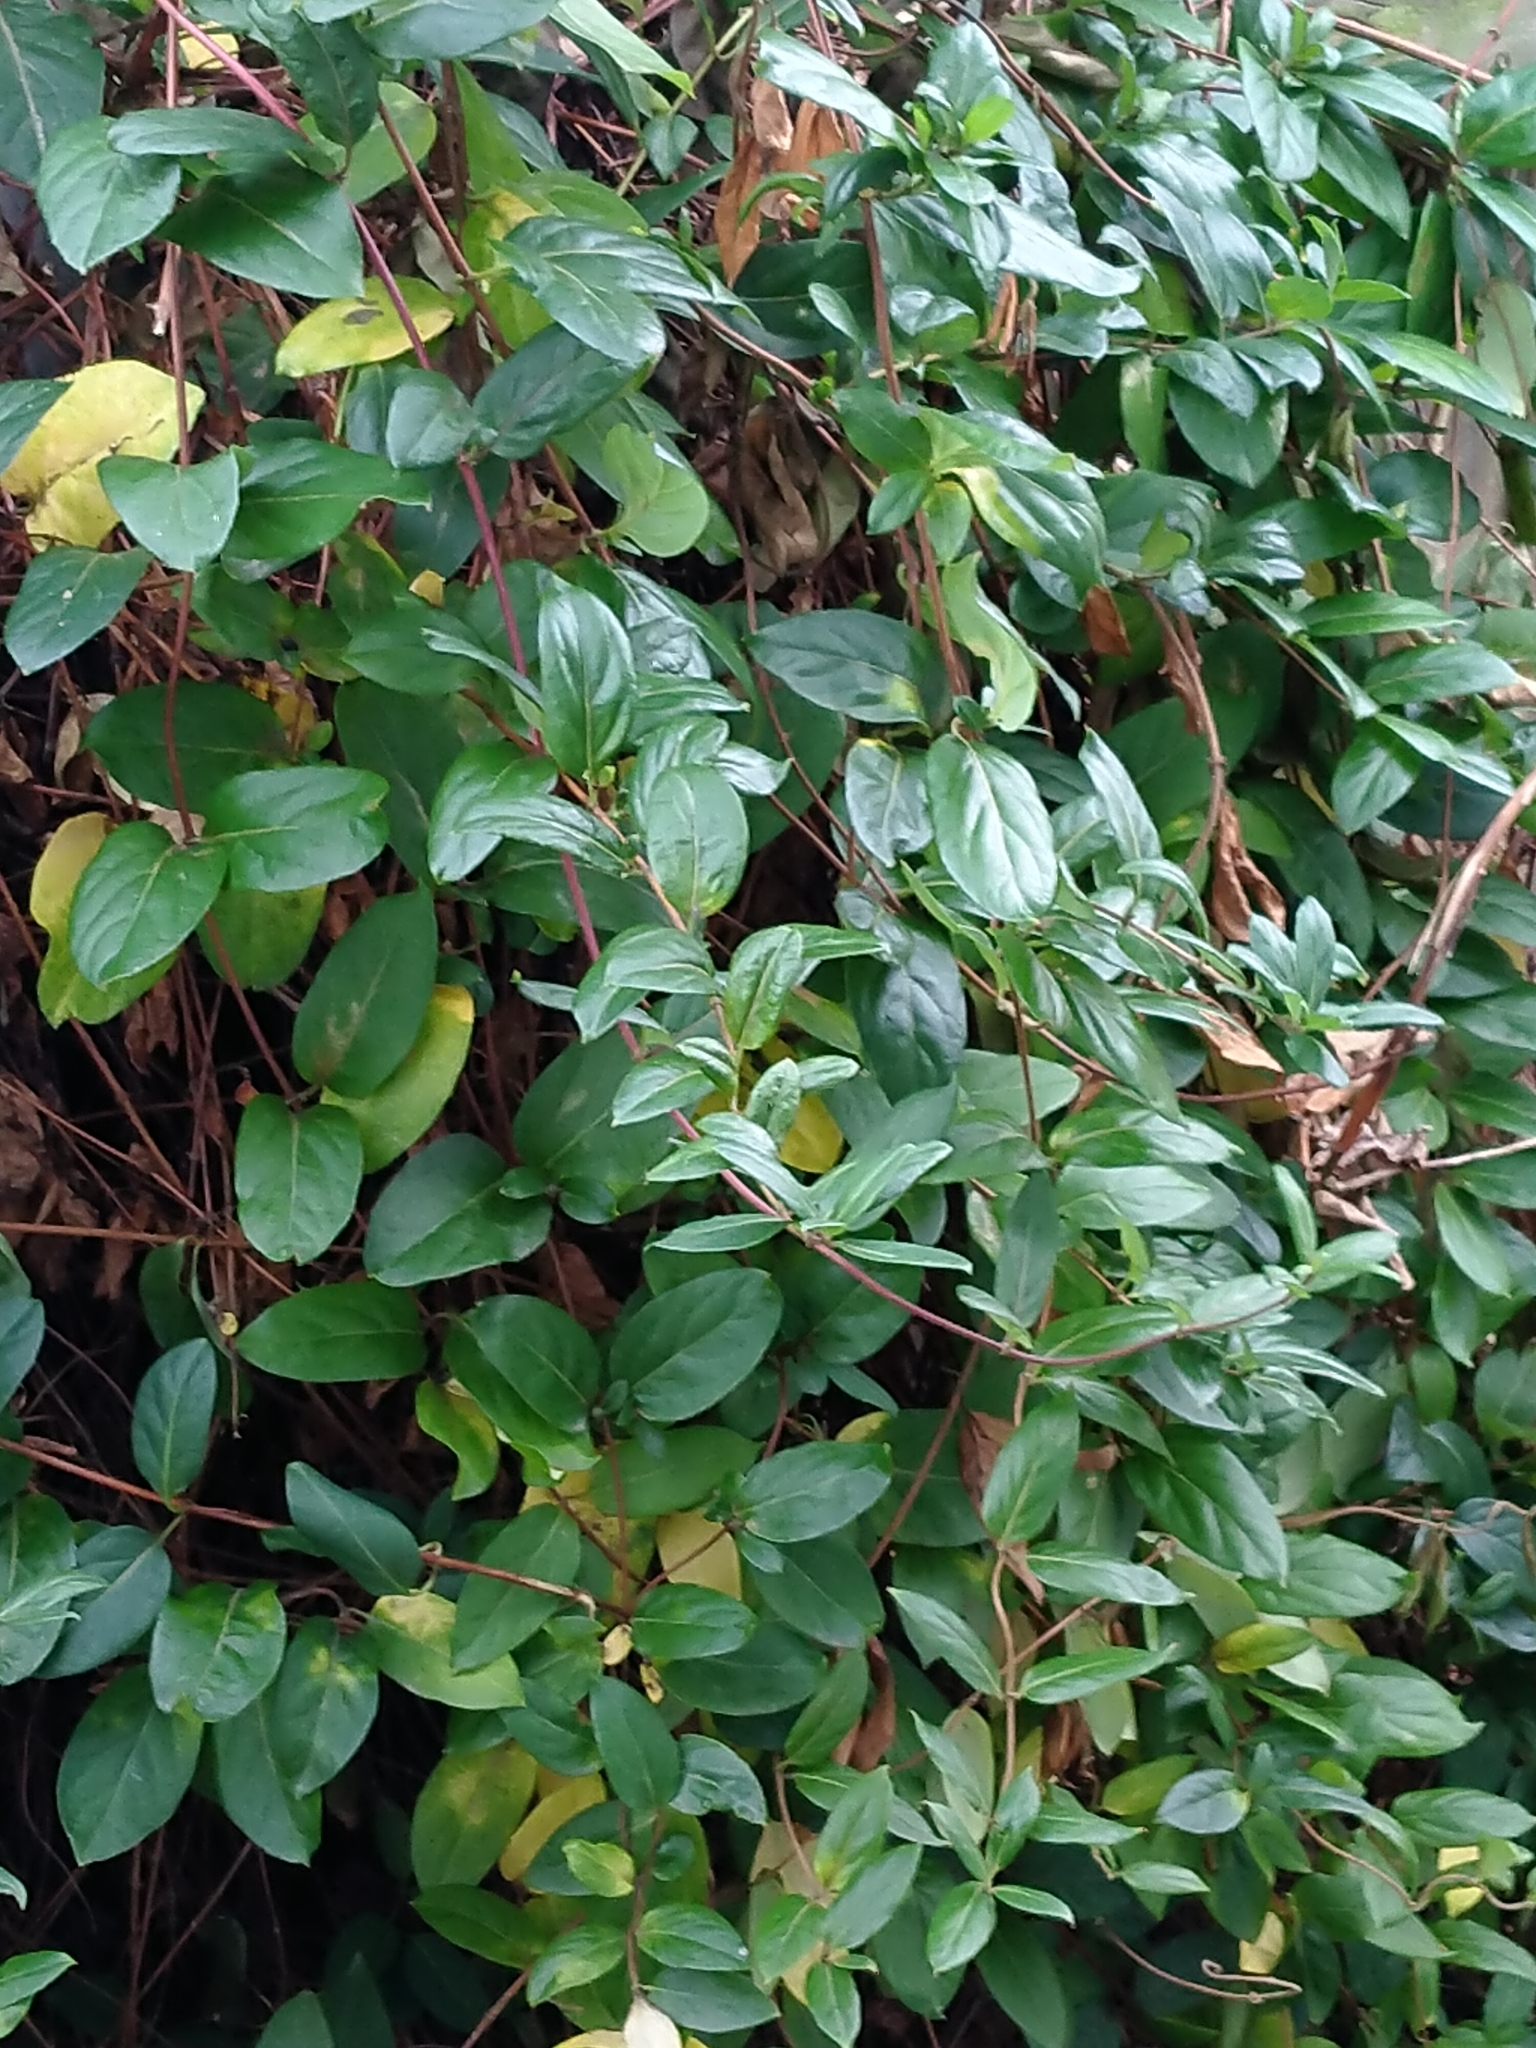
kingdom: Plantae
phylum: Tracheophyta
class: Magnoliopsida
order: Dipsacales
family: Caprifoliaceae
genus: Lonicera
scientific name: Lonicera japonica
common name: Japanese honeysuckle
